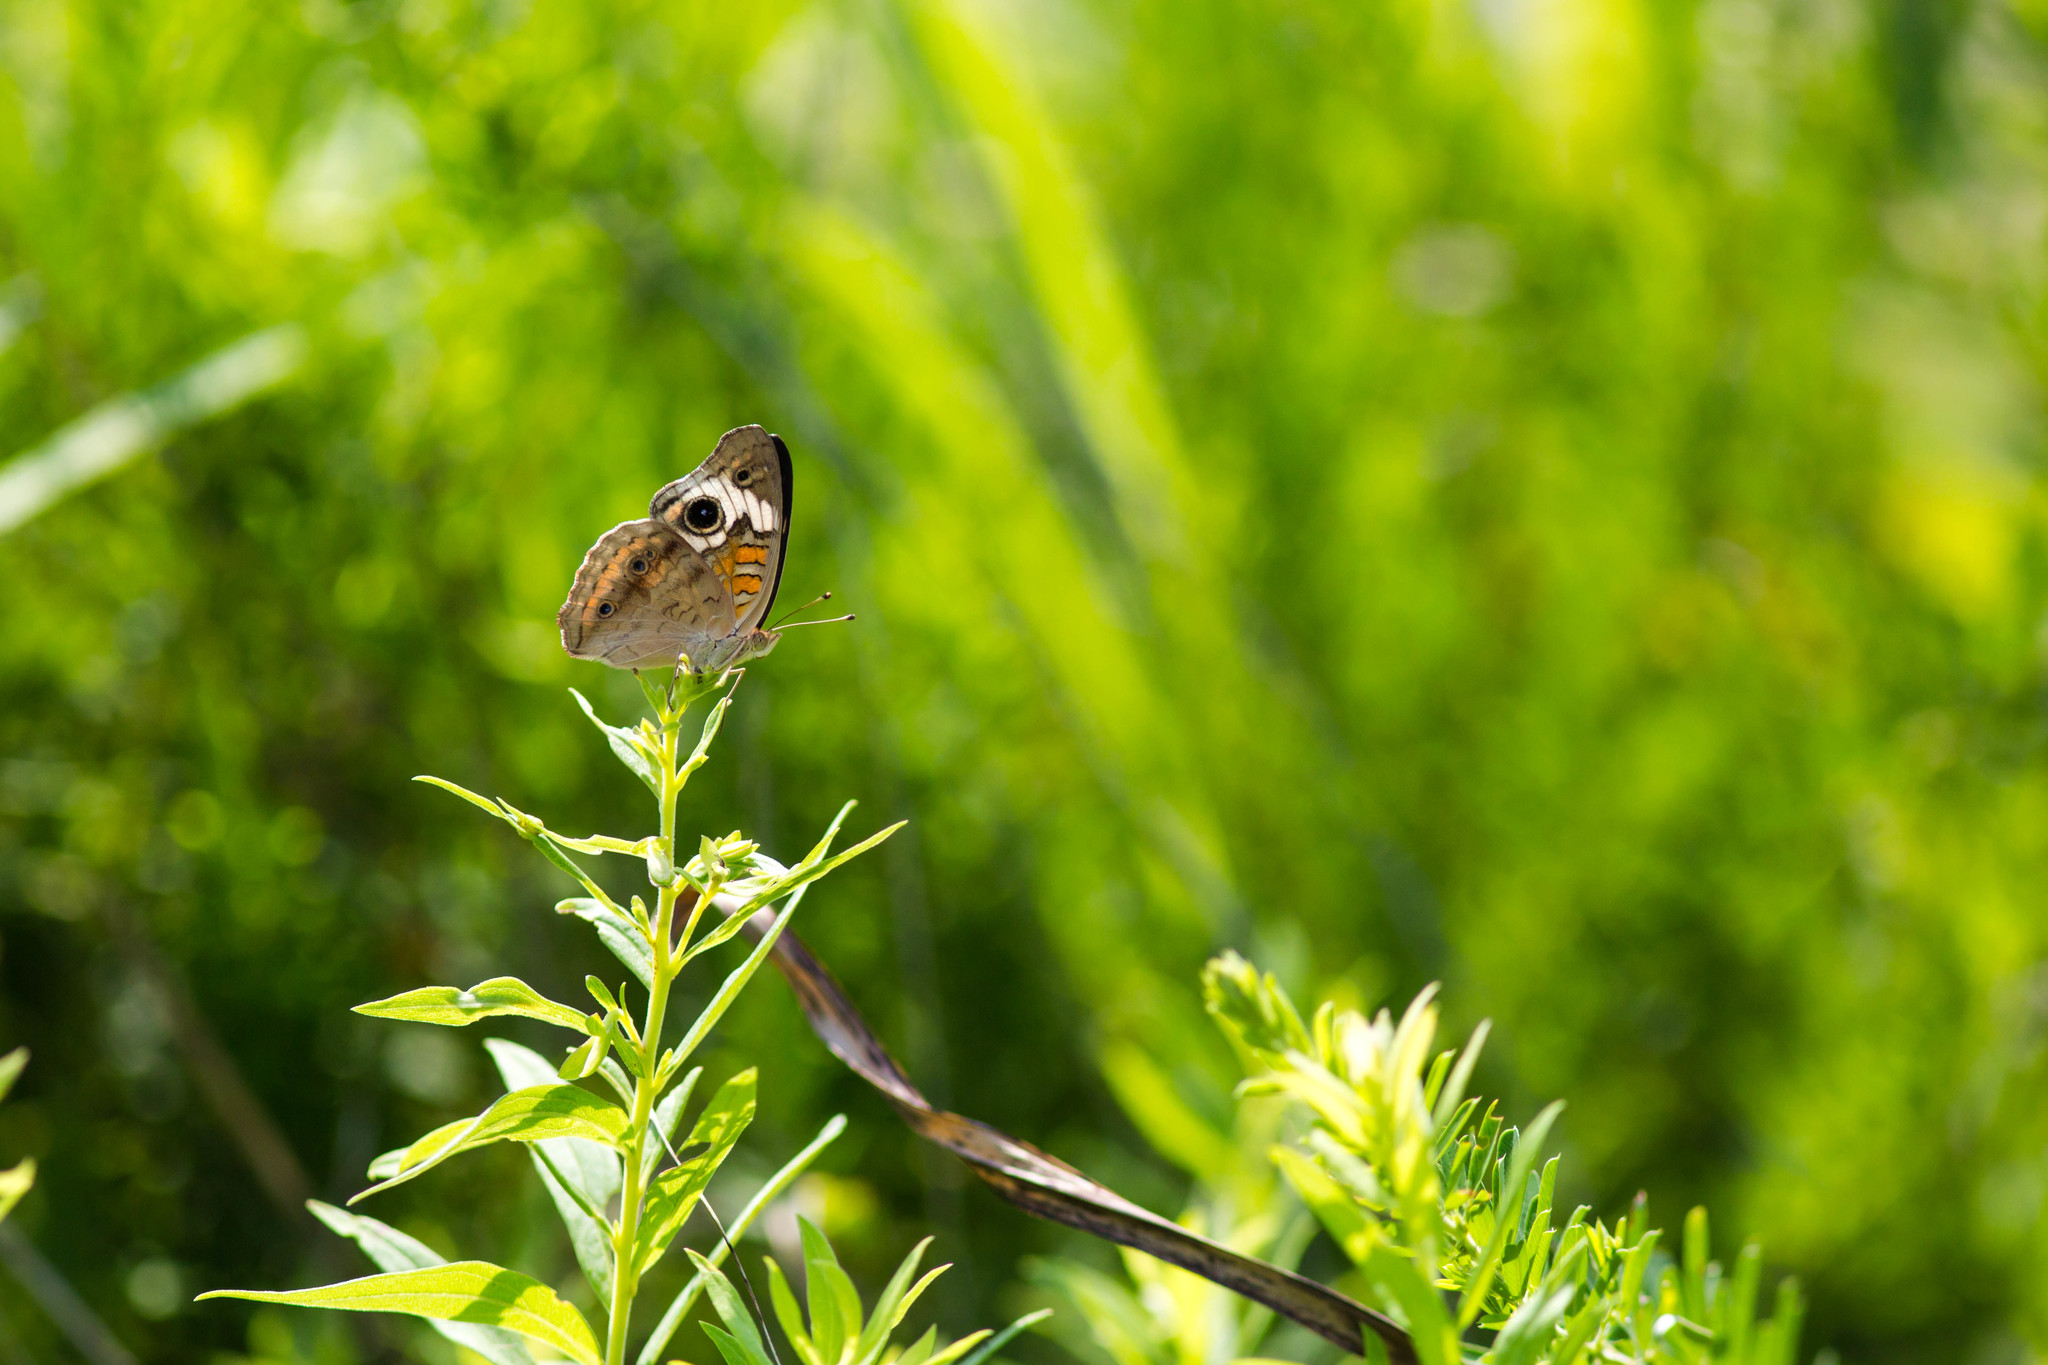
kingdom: Animalia
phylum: Arthropoda
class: Insecta
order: Lepidoptera
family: Nymphalidae
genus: Junonia
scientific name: Junonia coenia
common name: Common buckeye
